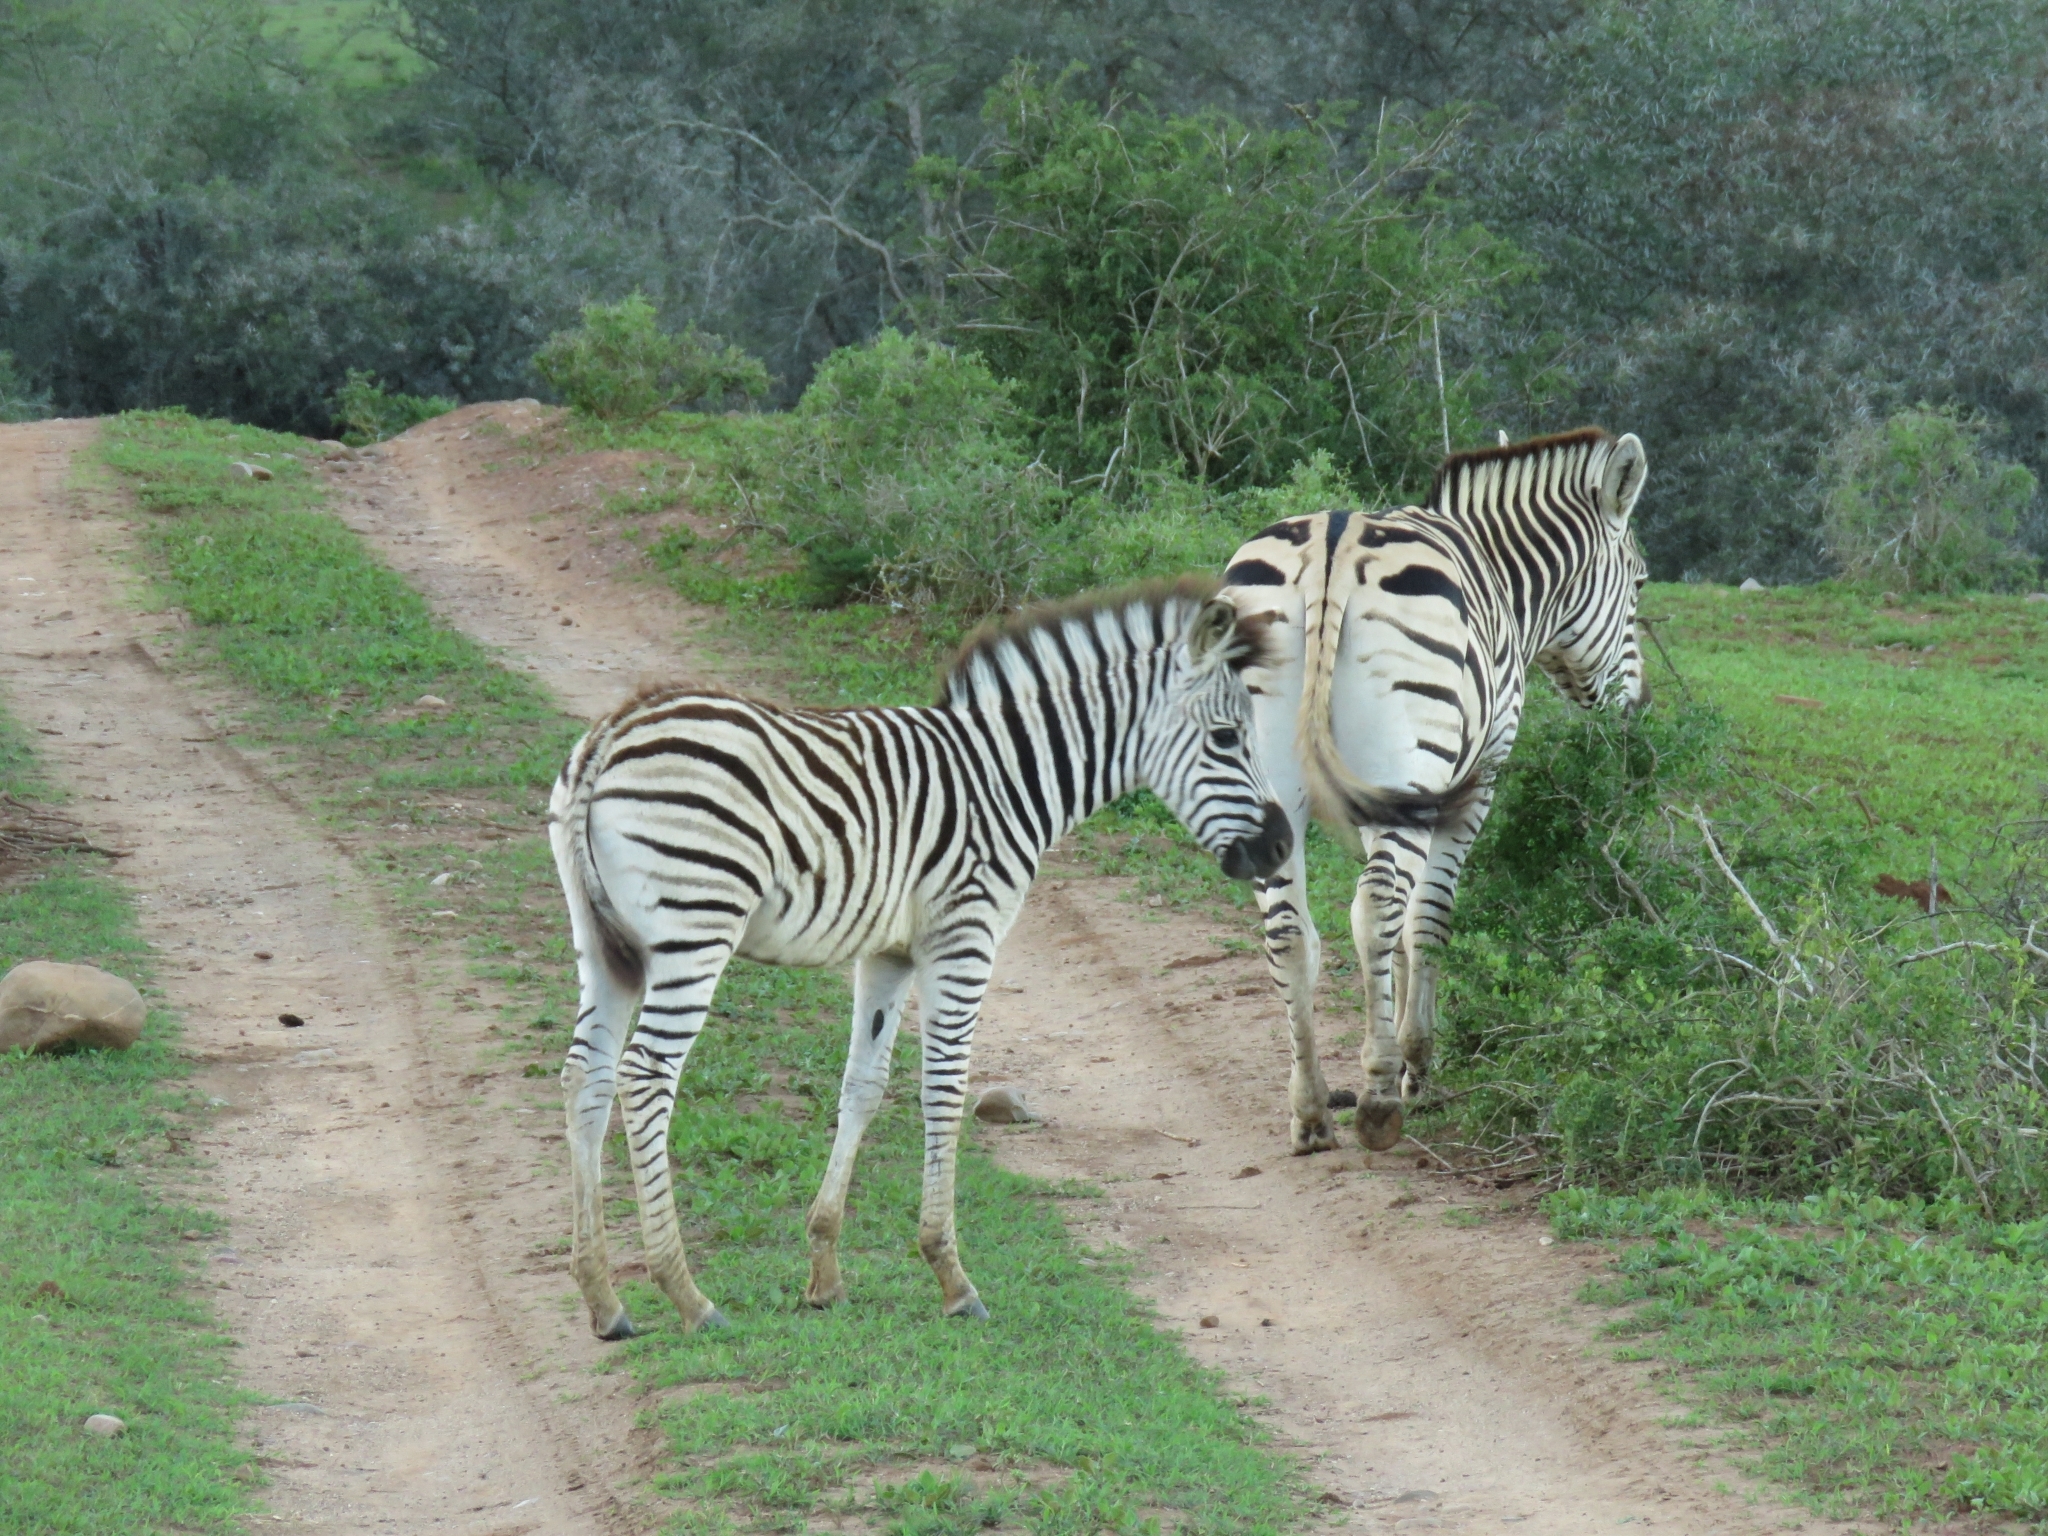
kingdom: Animalia
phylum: Chordata
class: Mammalia
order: Perissodactyla
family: Equidae
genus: Equus
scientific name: Equus quagga
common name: Plains zebra
